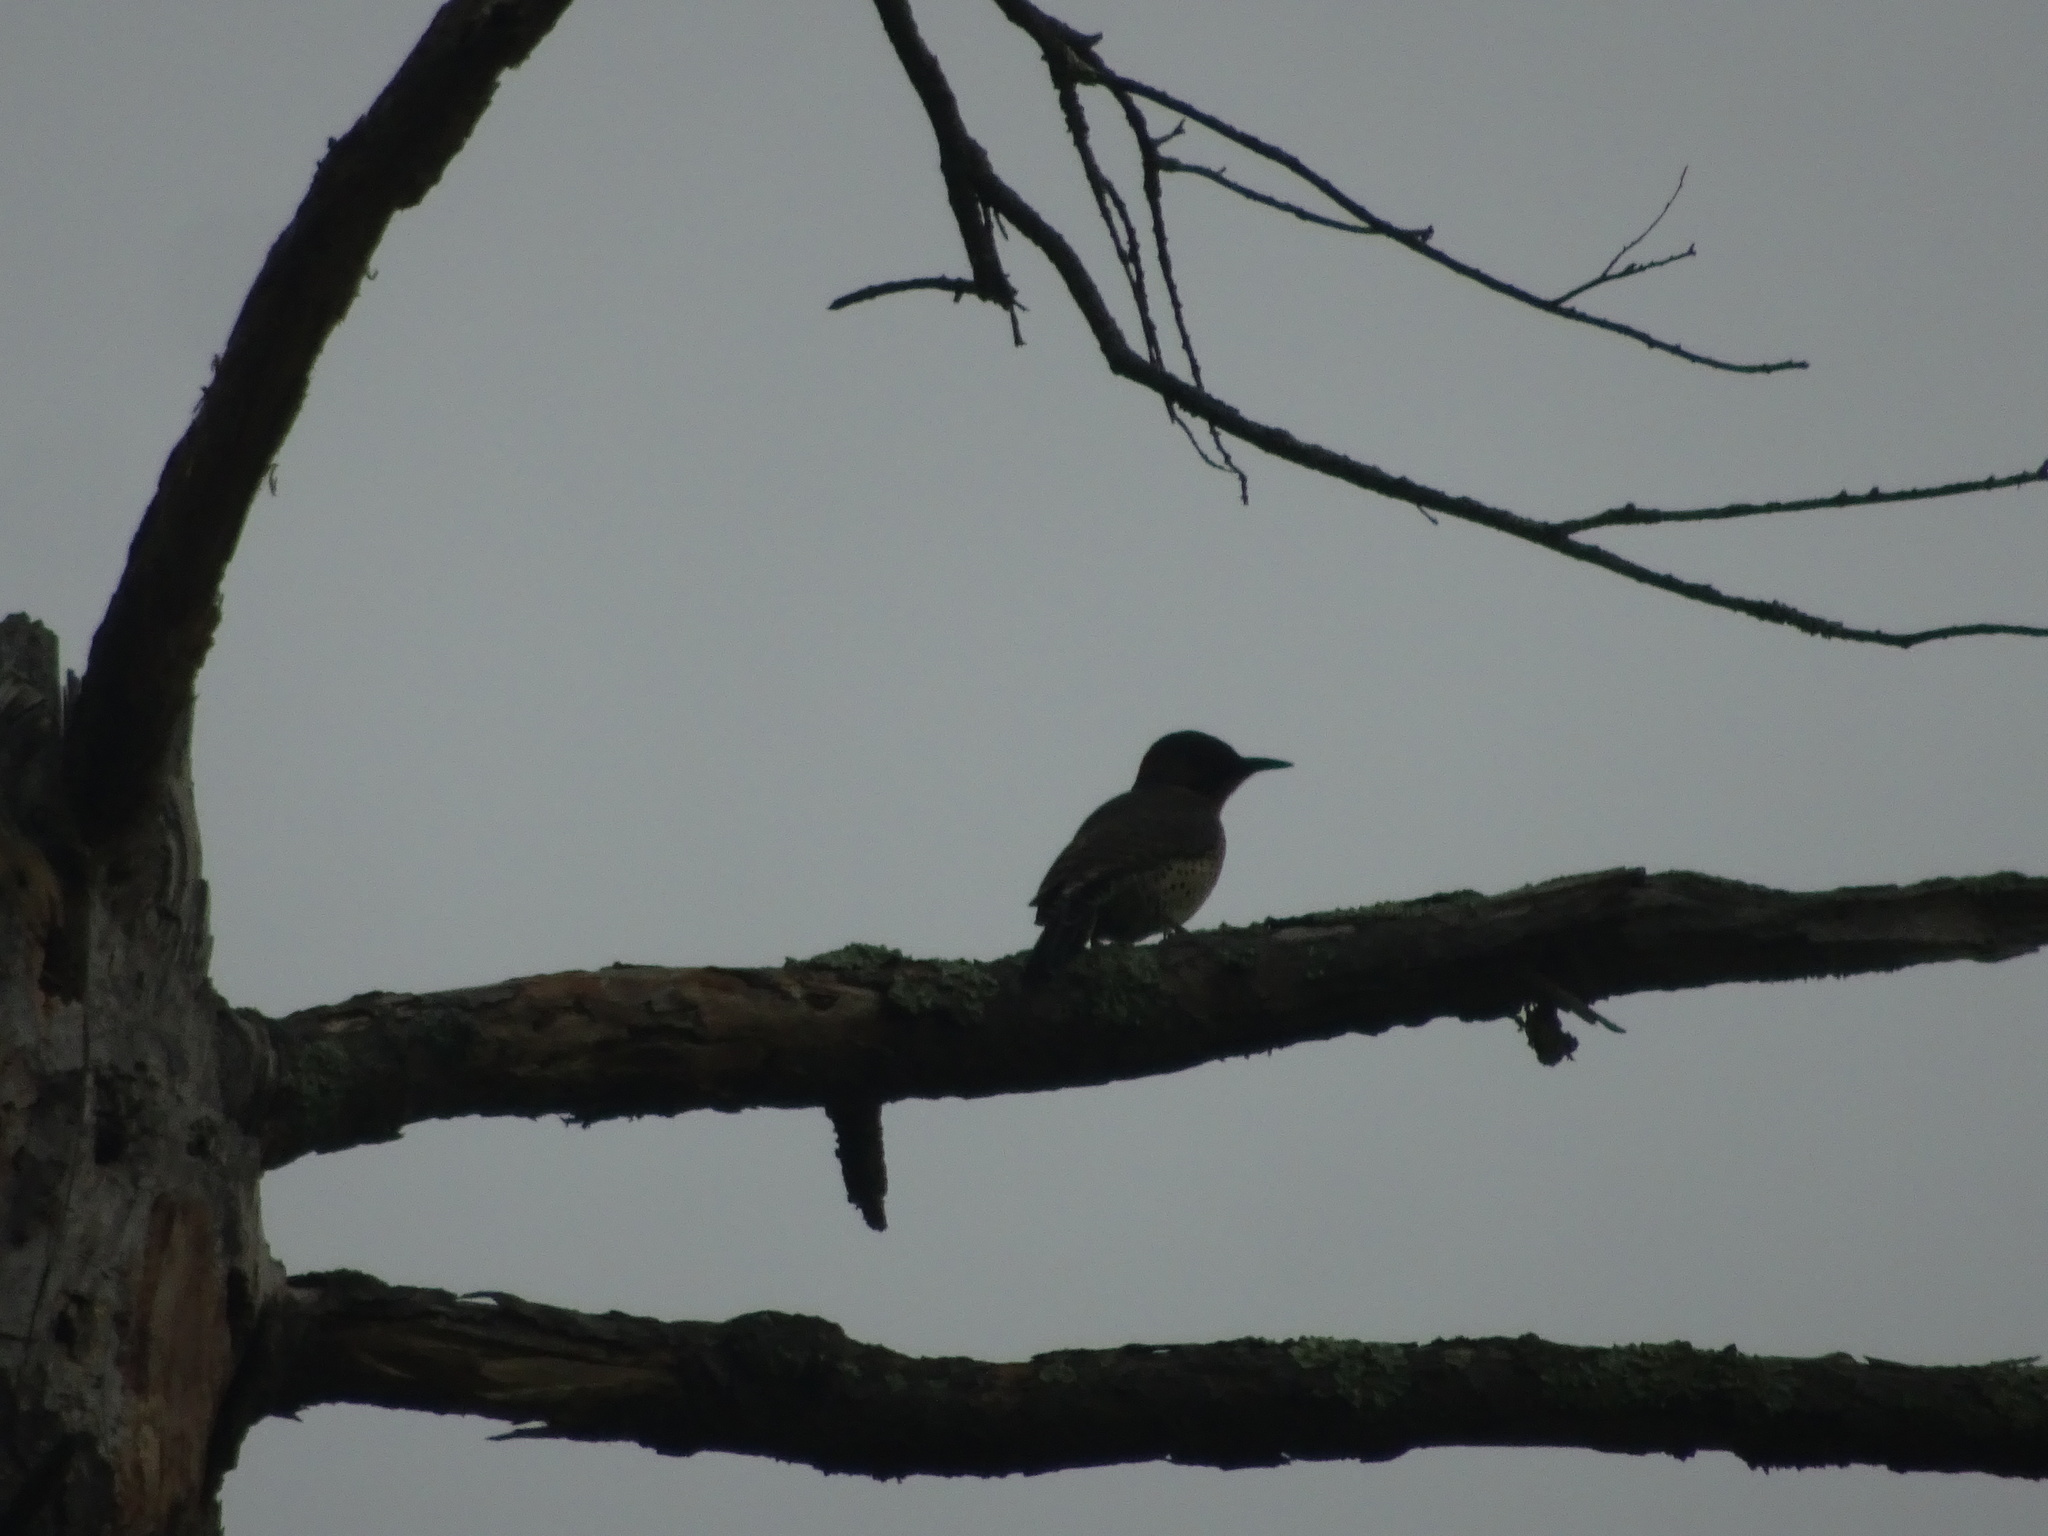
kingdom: Animalia
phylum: Chordata
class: Aves
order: Piciformes
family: Picidae
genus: Colaptes
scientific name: Colaptes auratus
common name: Northern flicker
